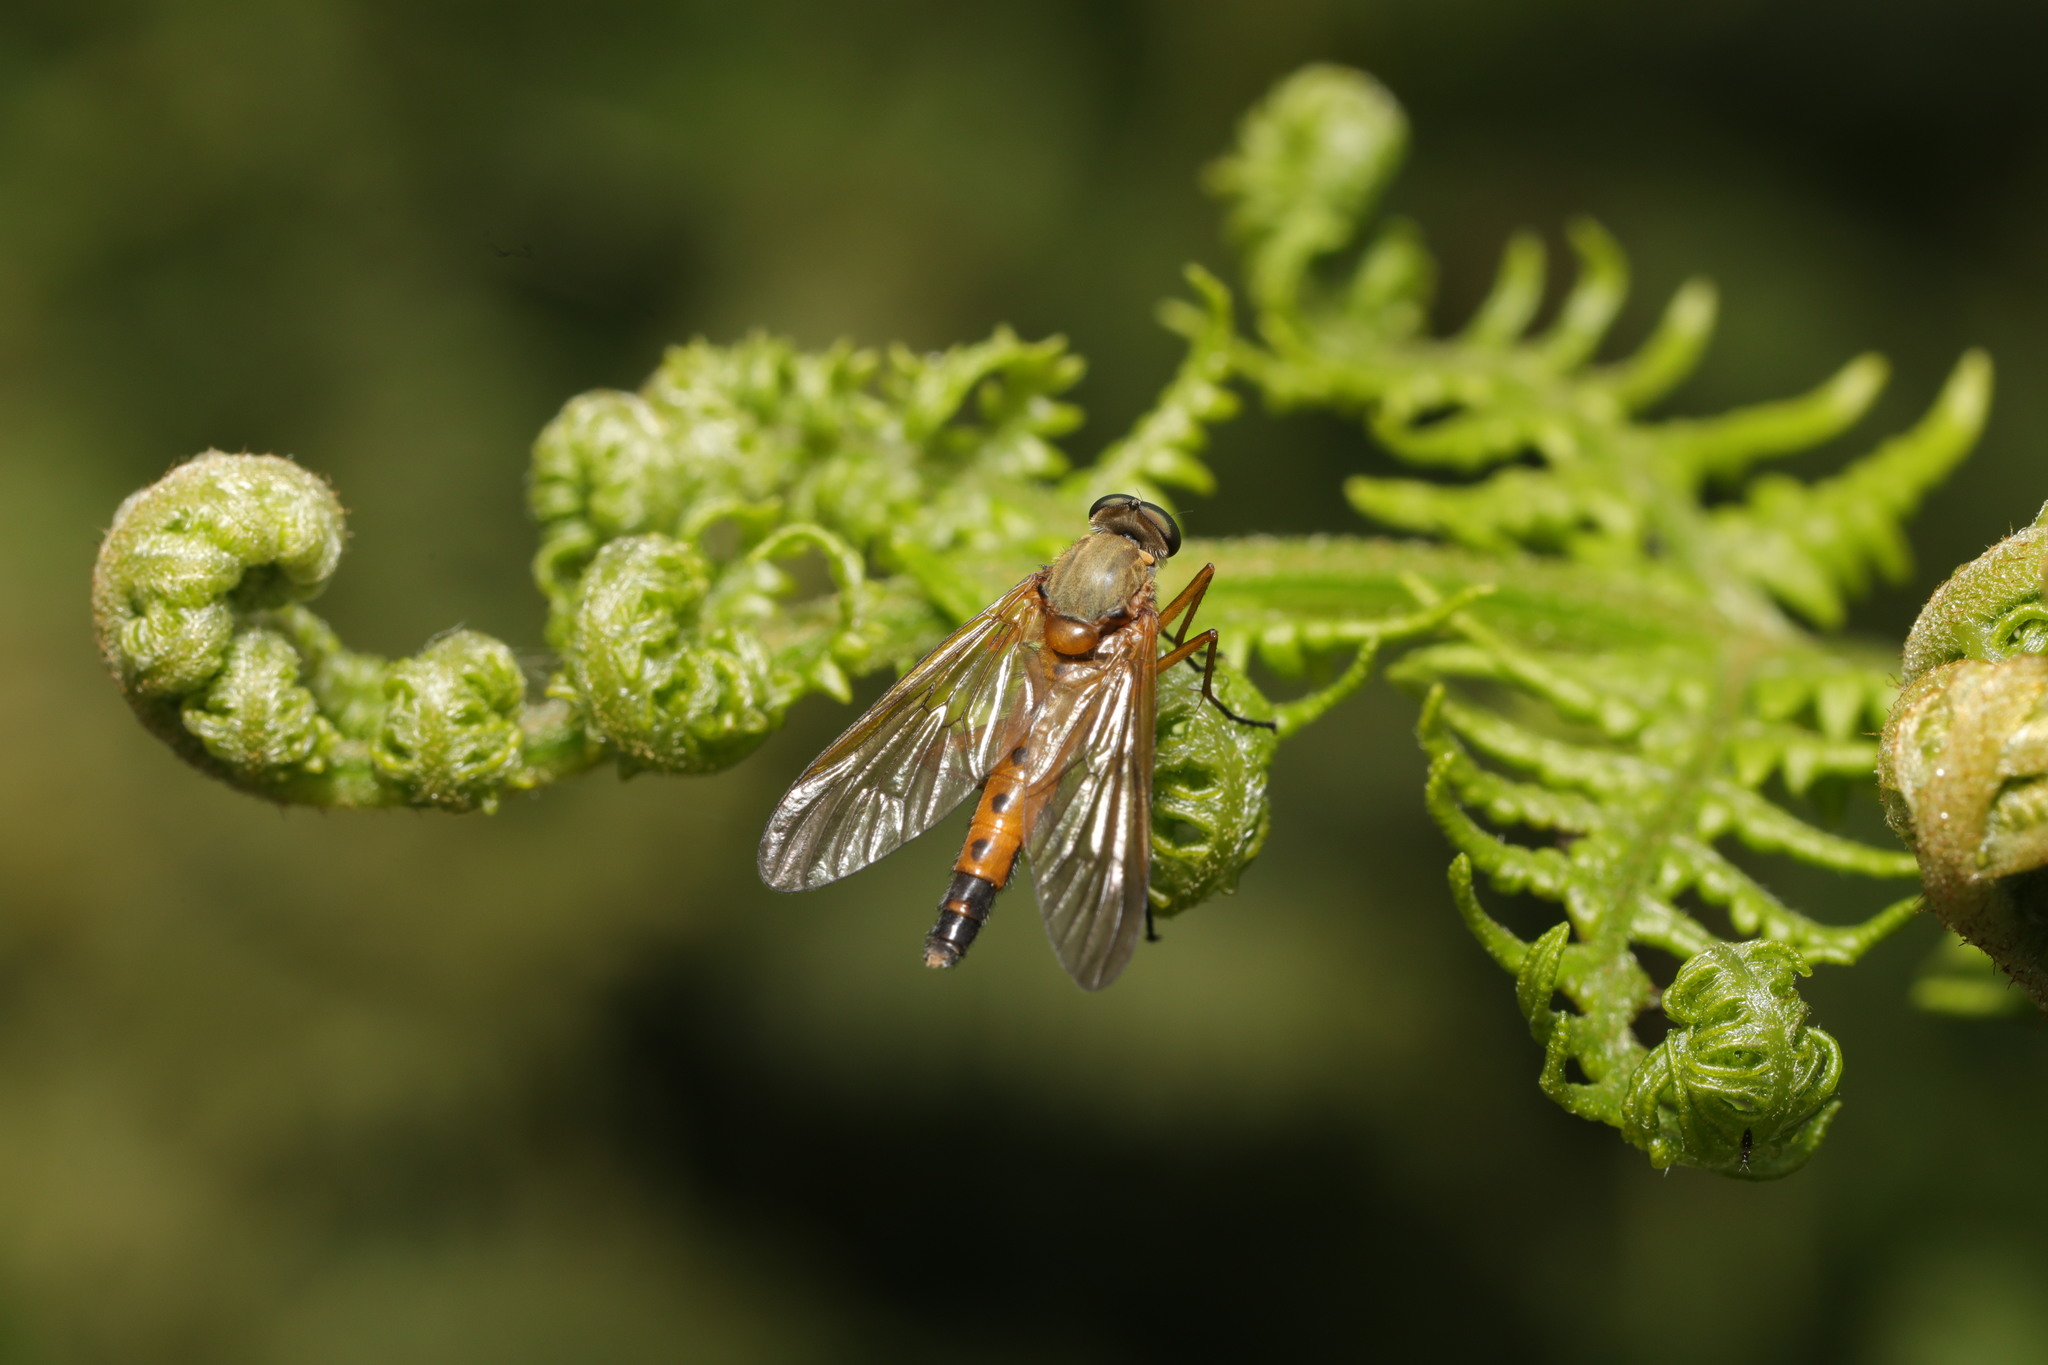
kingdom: Animalia
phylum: Arthropoda
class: Insecta
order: Diptera
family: Rhagionidae
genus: Rhagio
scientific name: Rhagio tringaria
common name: Marsh snipefly
